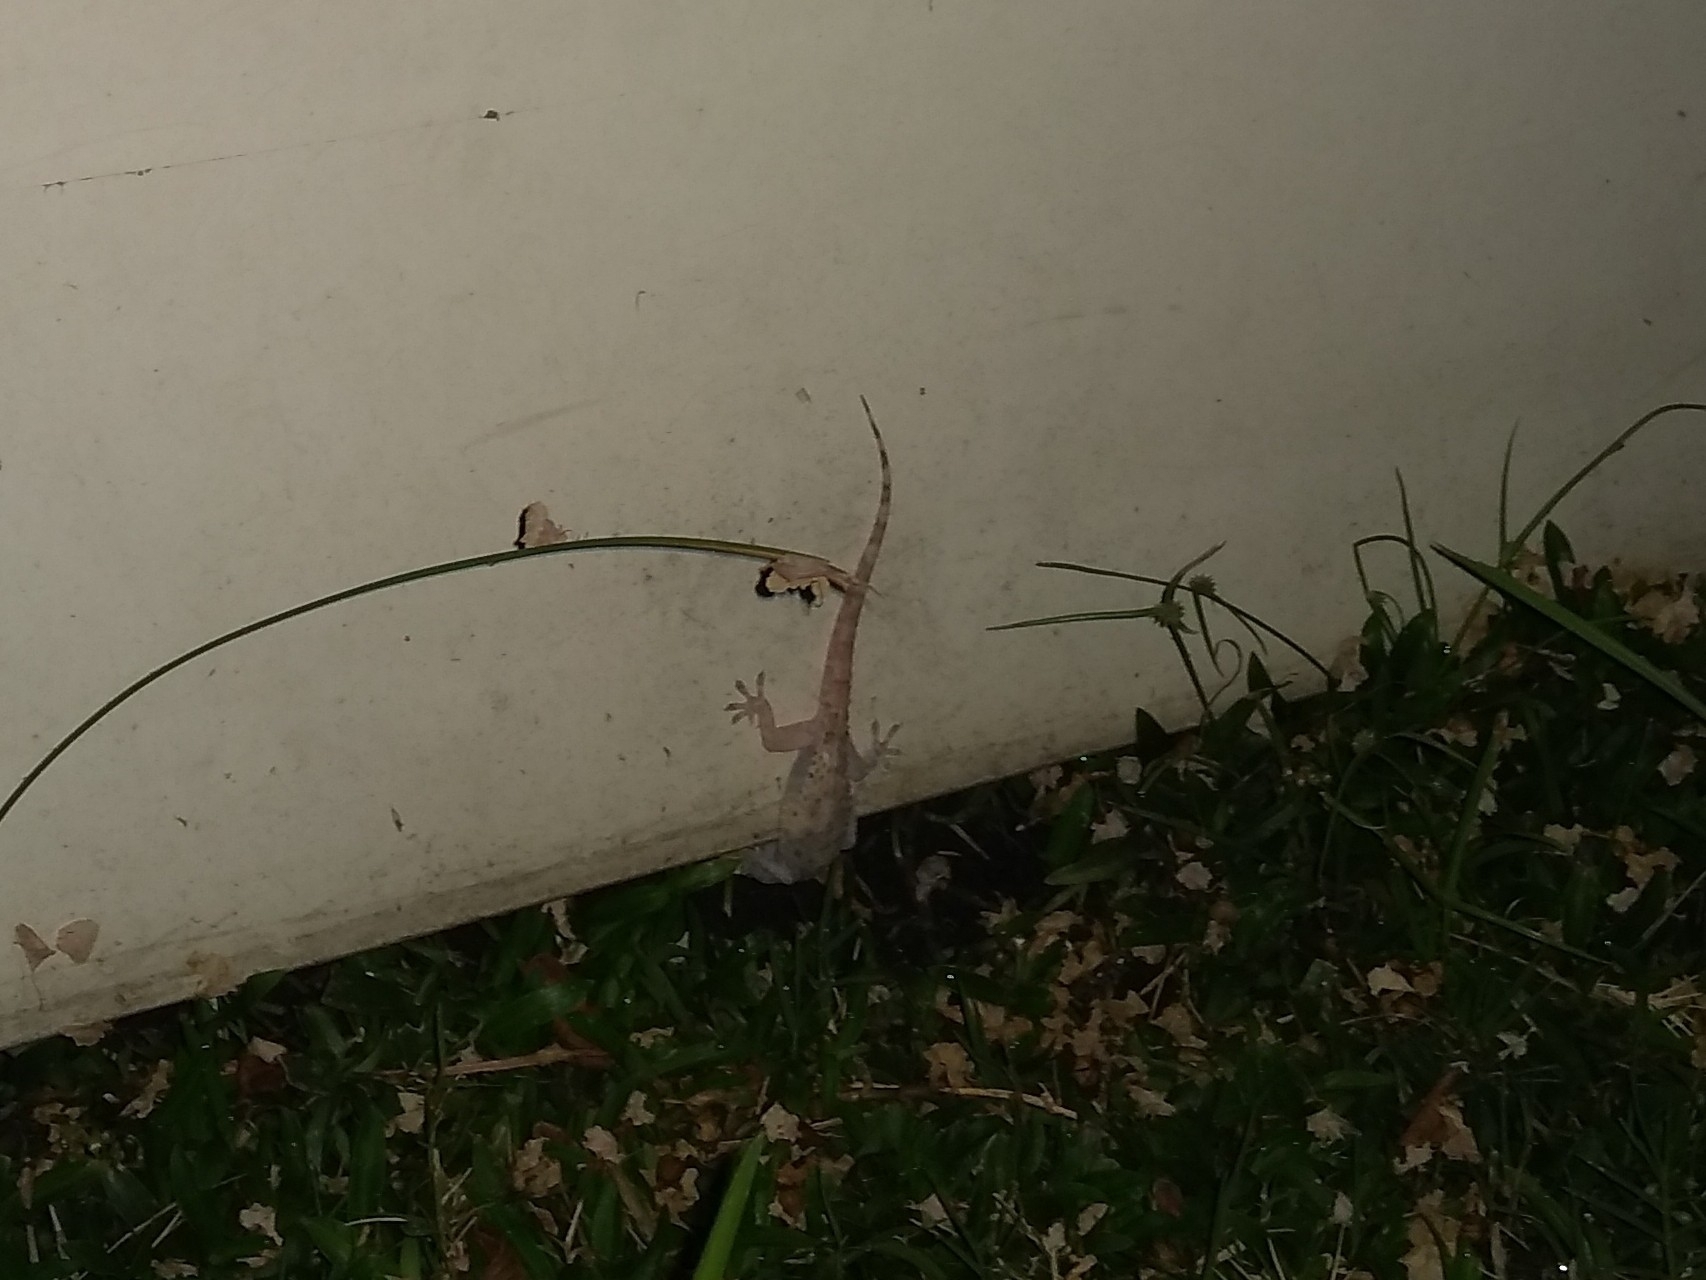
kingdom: Animalia
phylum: Chordata
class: Squamata
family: Gekkonidae
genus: Hemidactylus
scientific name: Hemidactylus turcicus
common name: Turkish gecko
